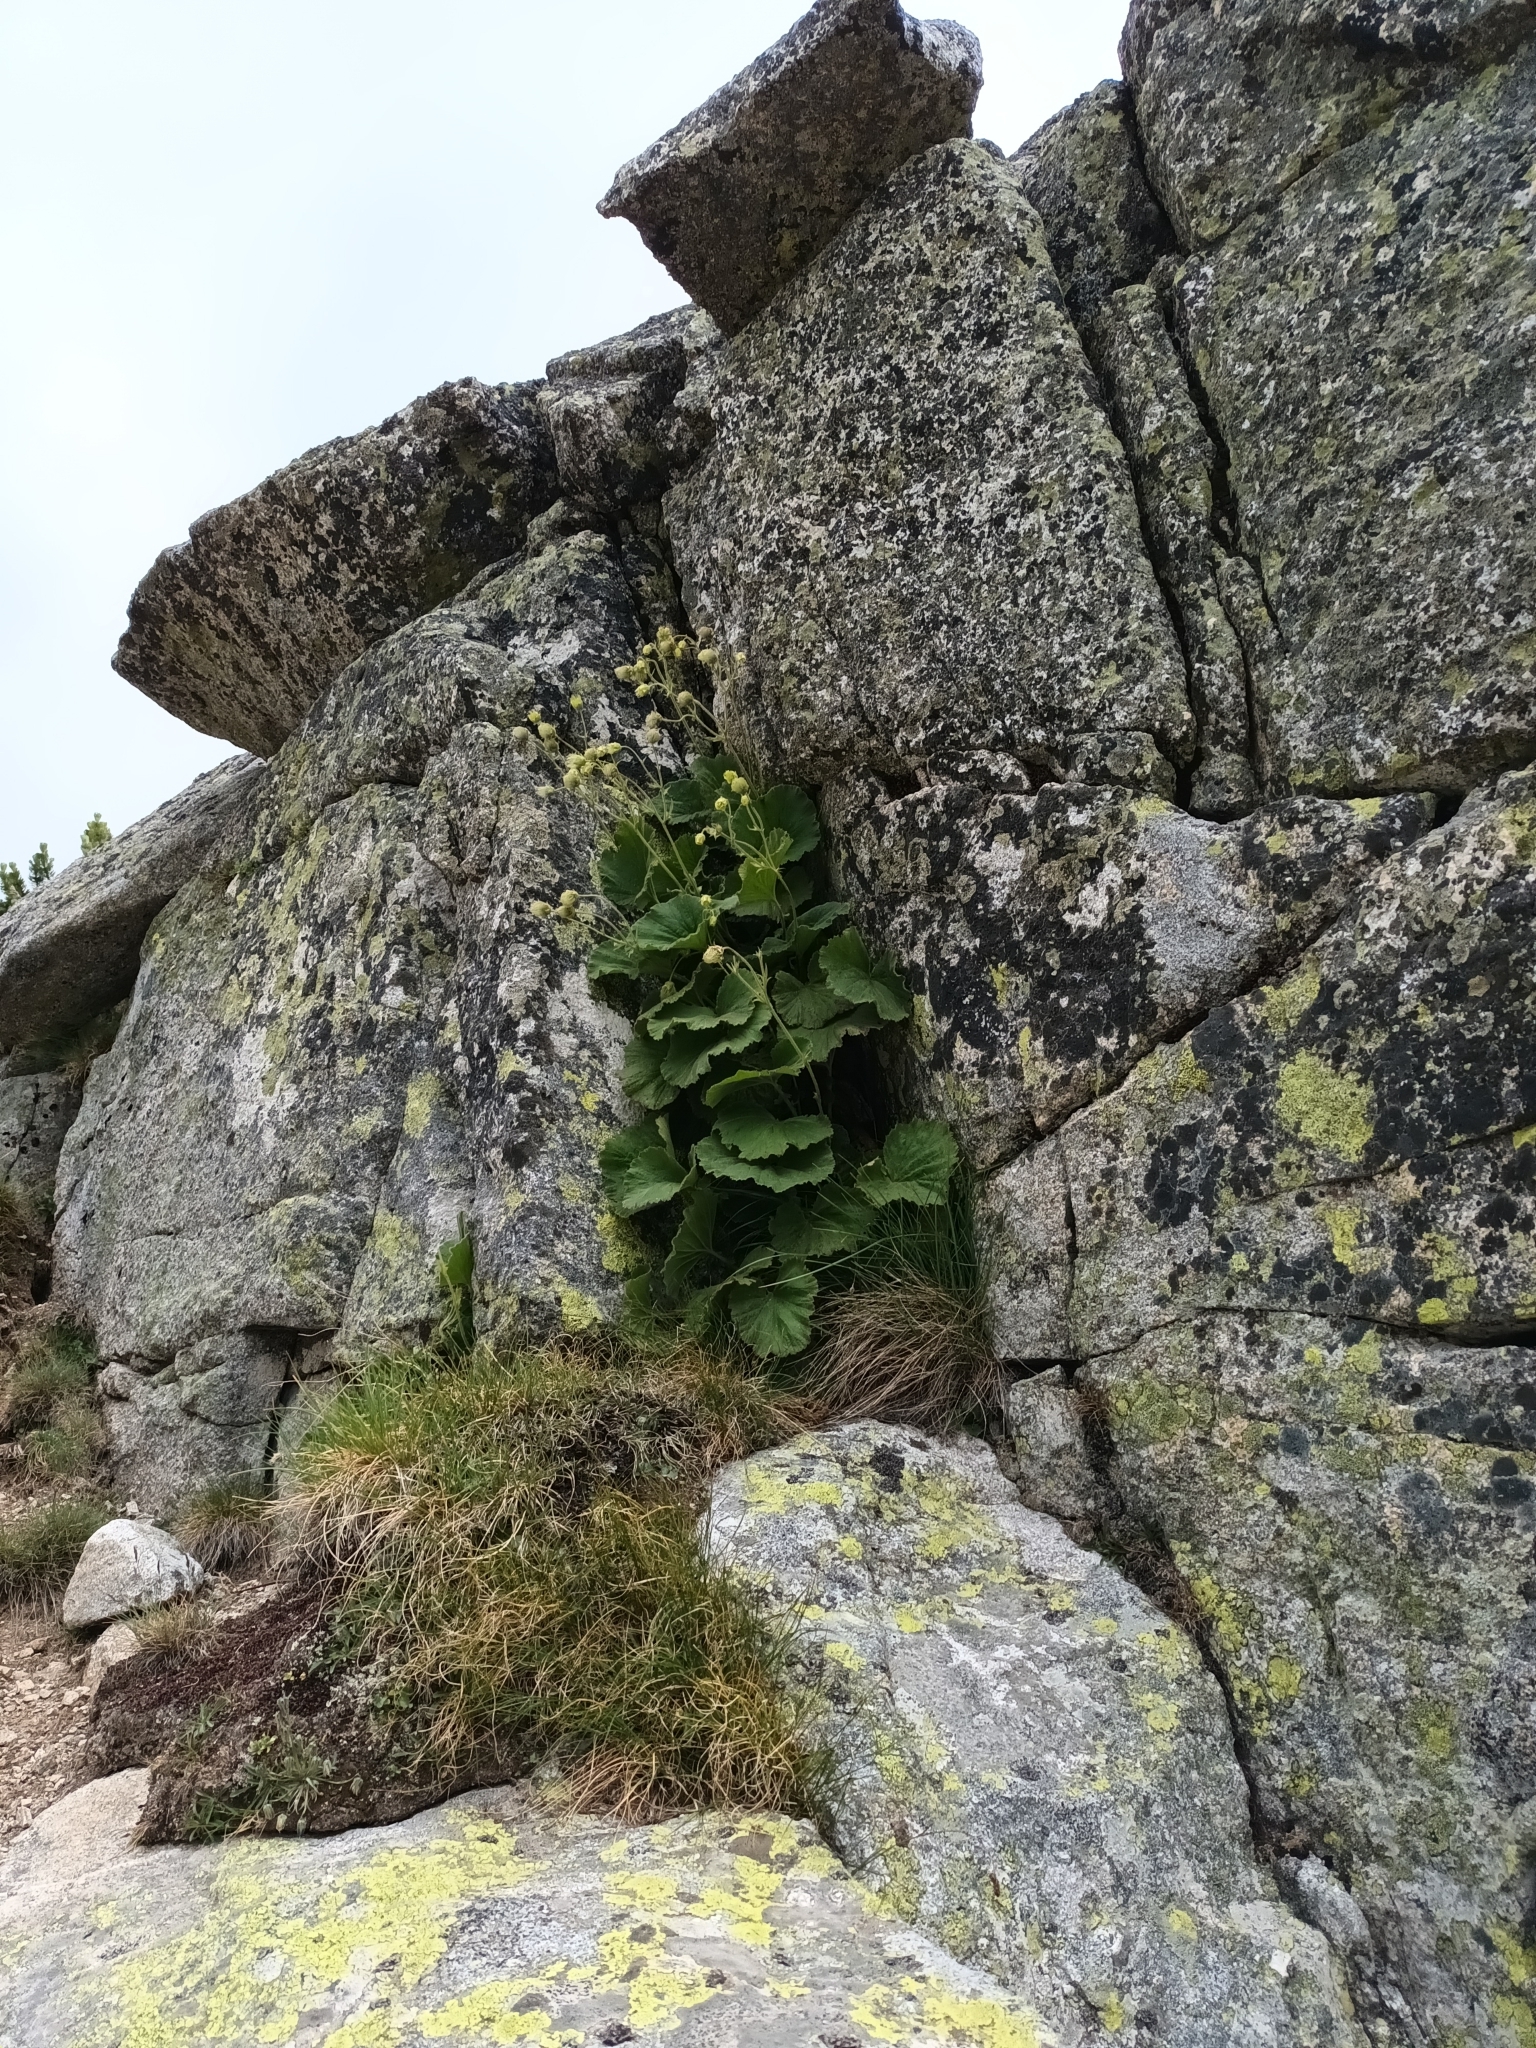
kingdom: Plantae
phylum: Tracheophyta
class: Magnoliopsida
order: Rosales
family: Rosaceae
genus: Geum
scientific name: Geum bulgaricum
